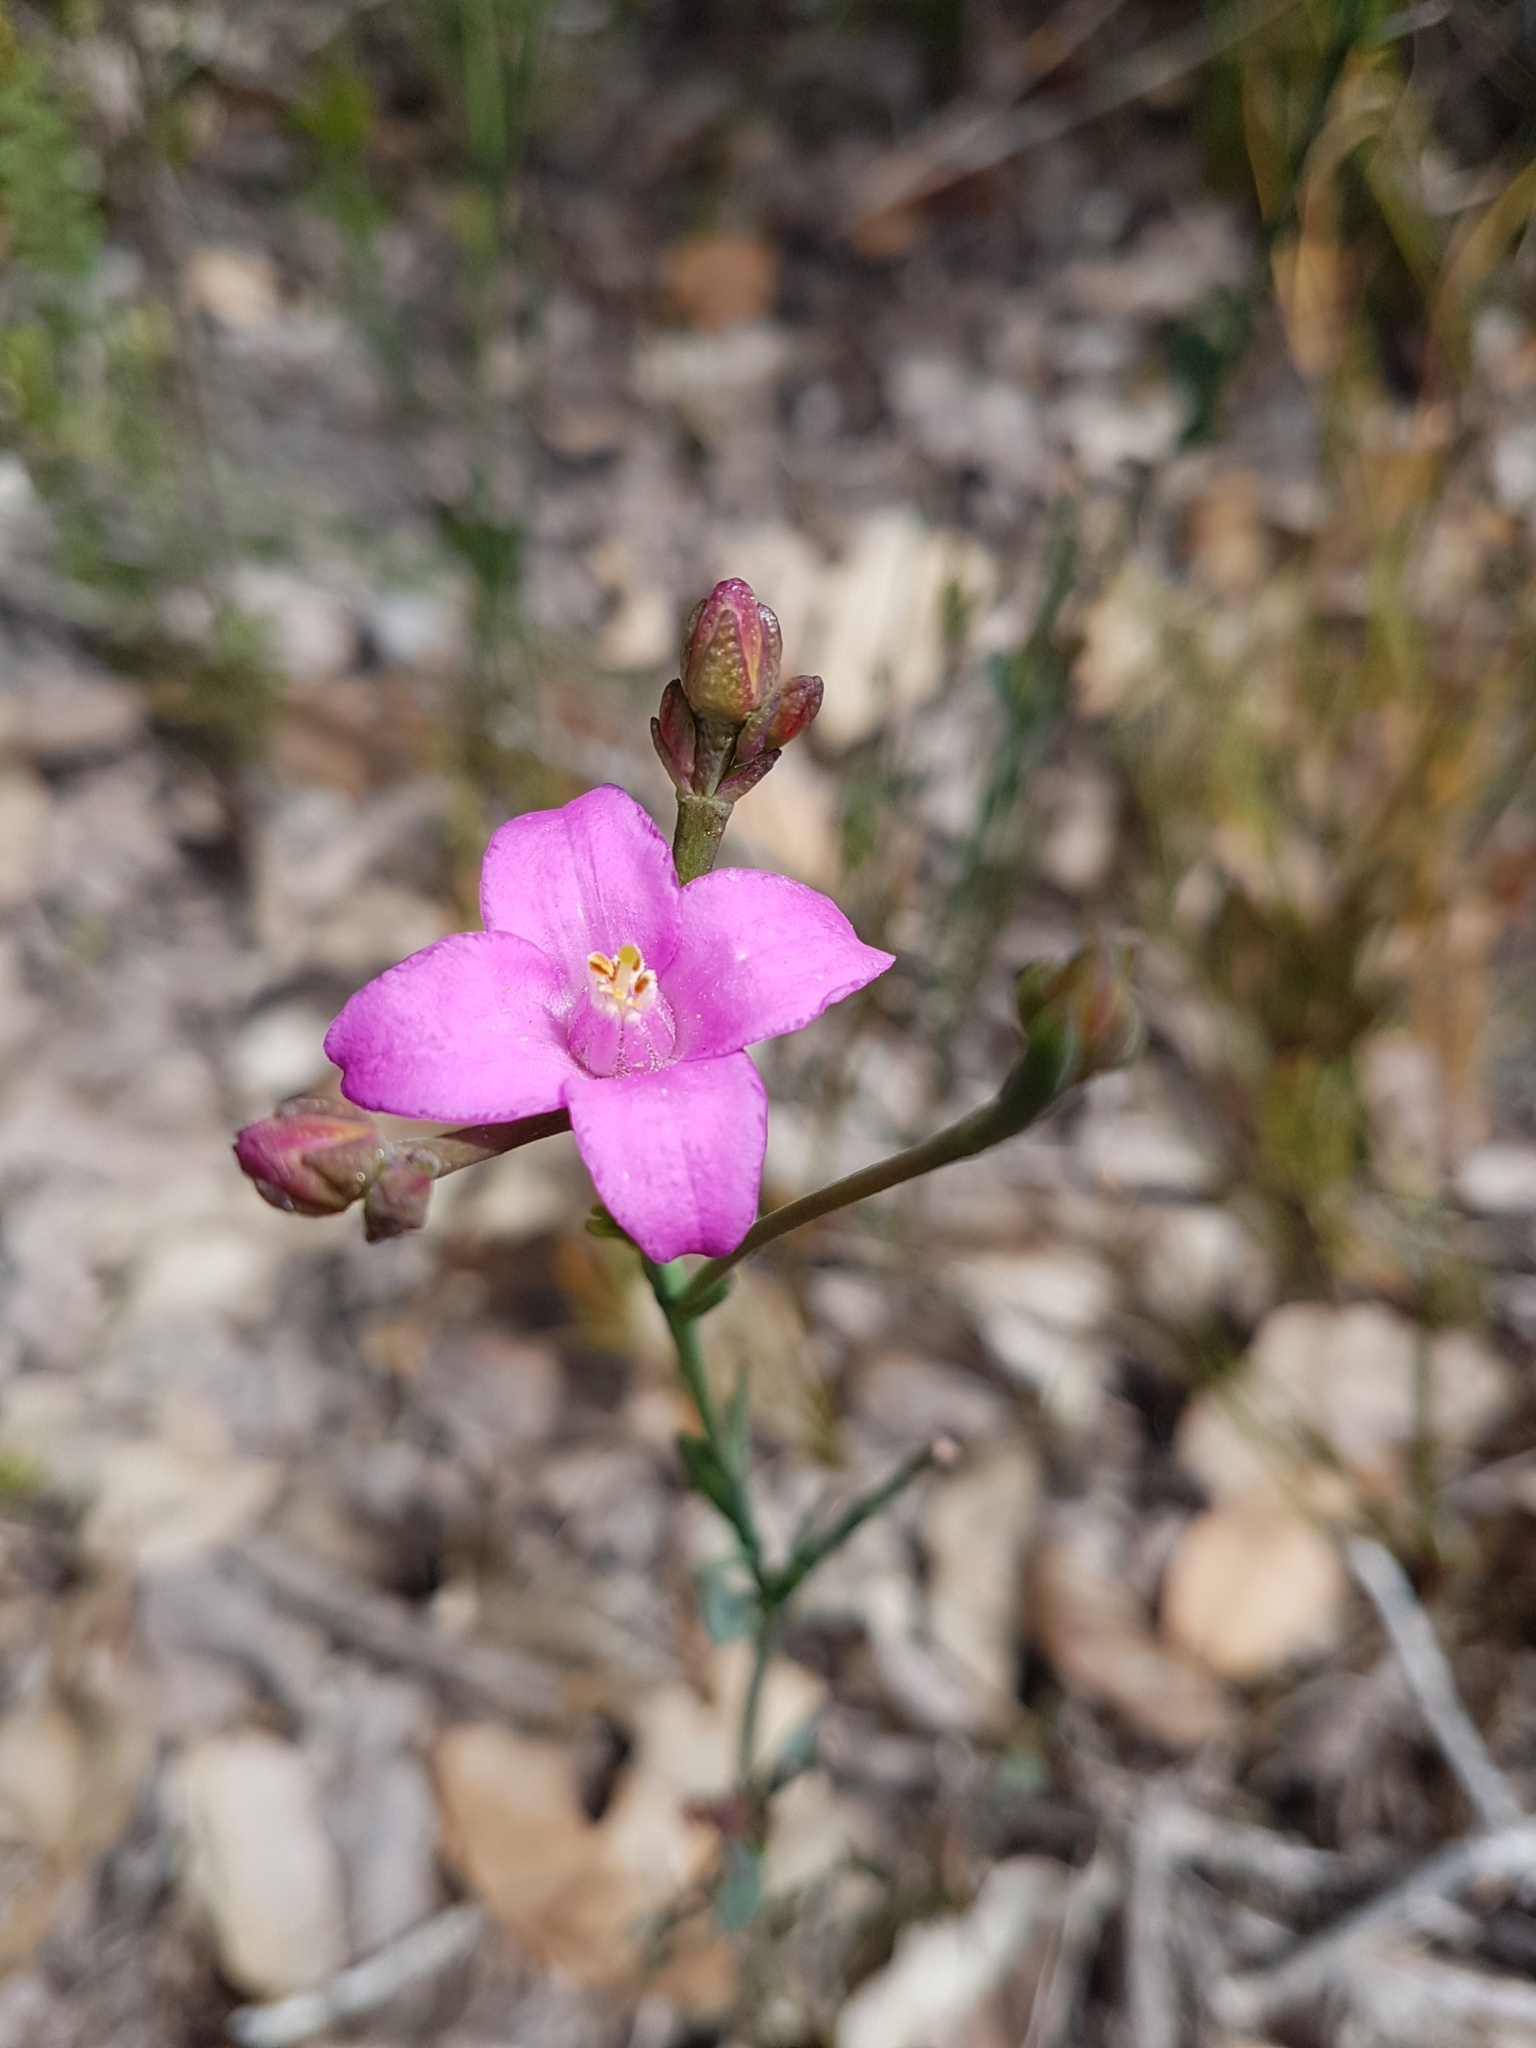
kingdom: Plantae
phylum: Tracheophyta
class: Magnoliopsida
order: Sapindales
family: Rutaceae
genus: Boronia
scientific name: Boronia spathulata
